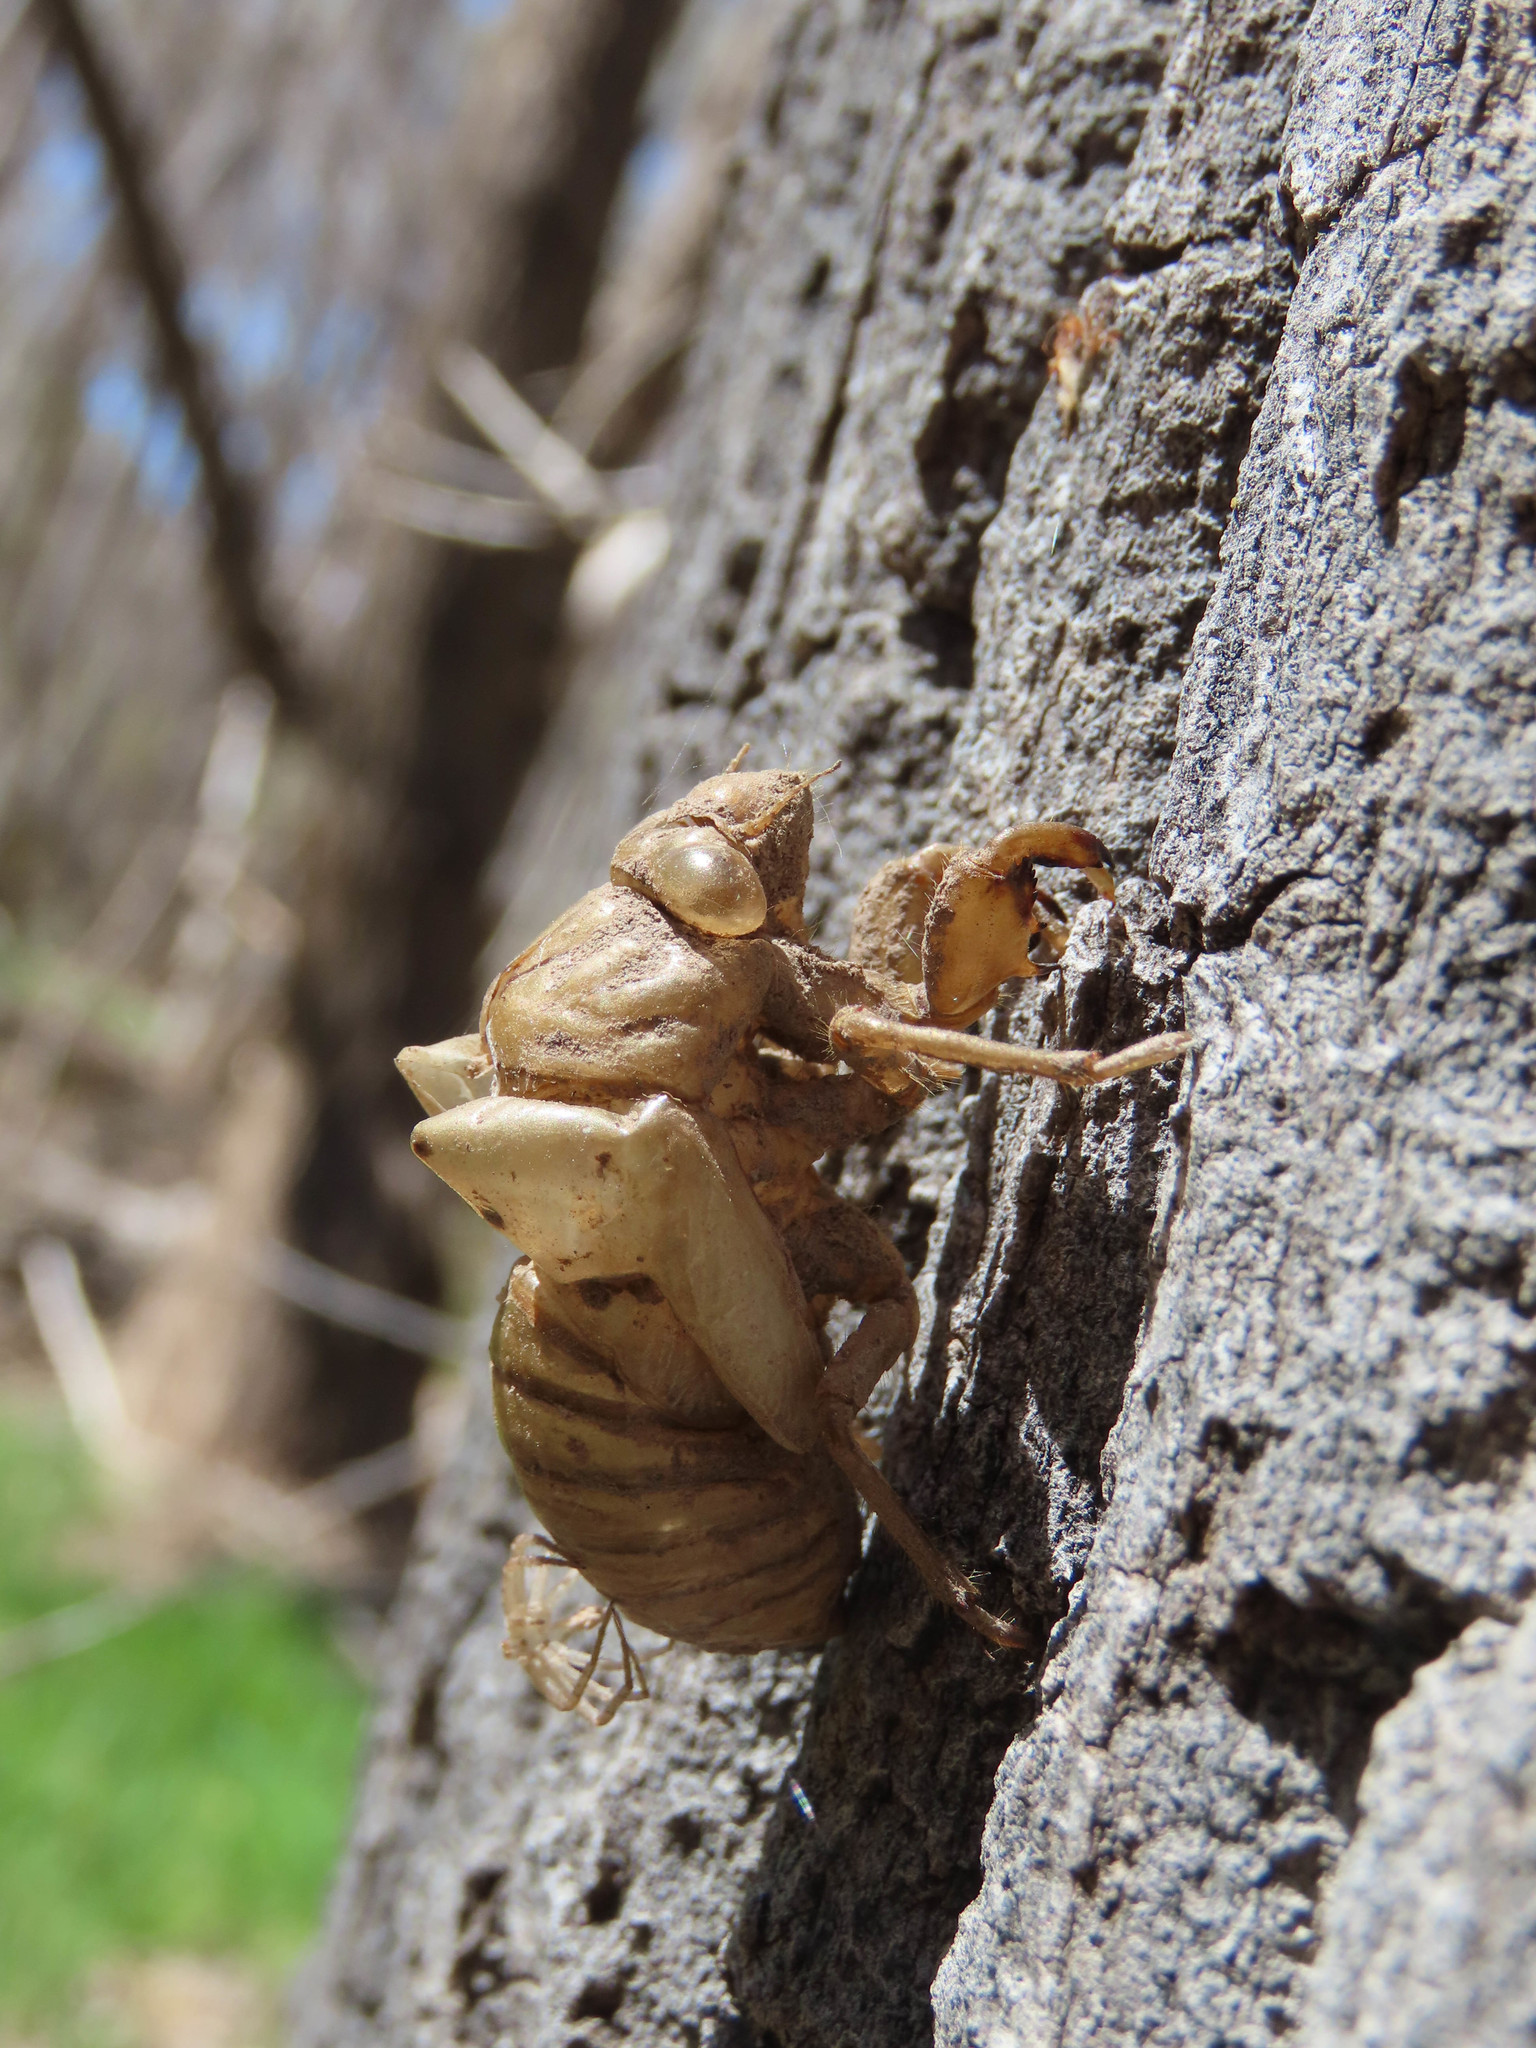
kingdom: Animalia
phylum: Arthropoda
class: Insecta
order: Hemiptera
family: Cicadidae
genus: Megatibicen
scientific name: Megatibicen cultriformis
